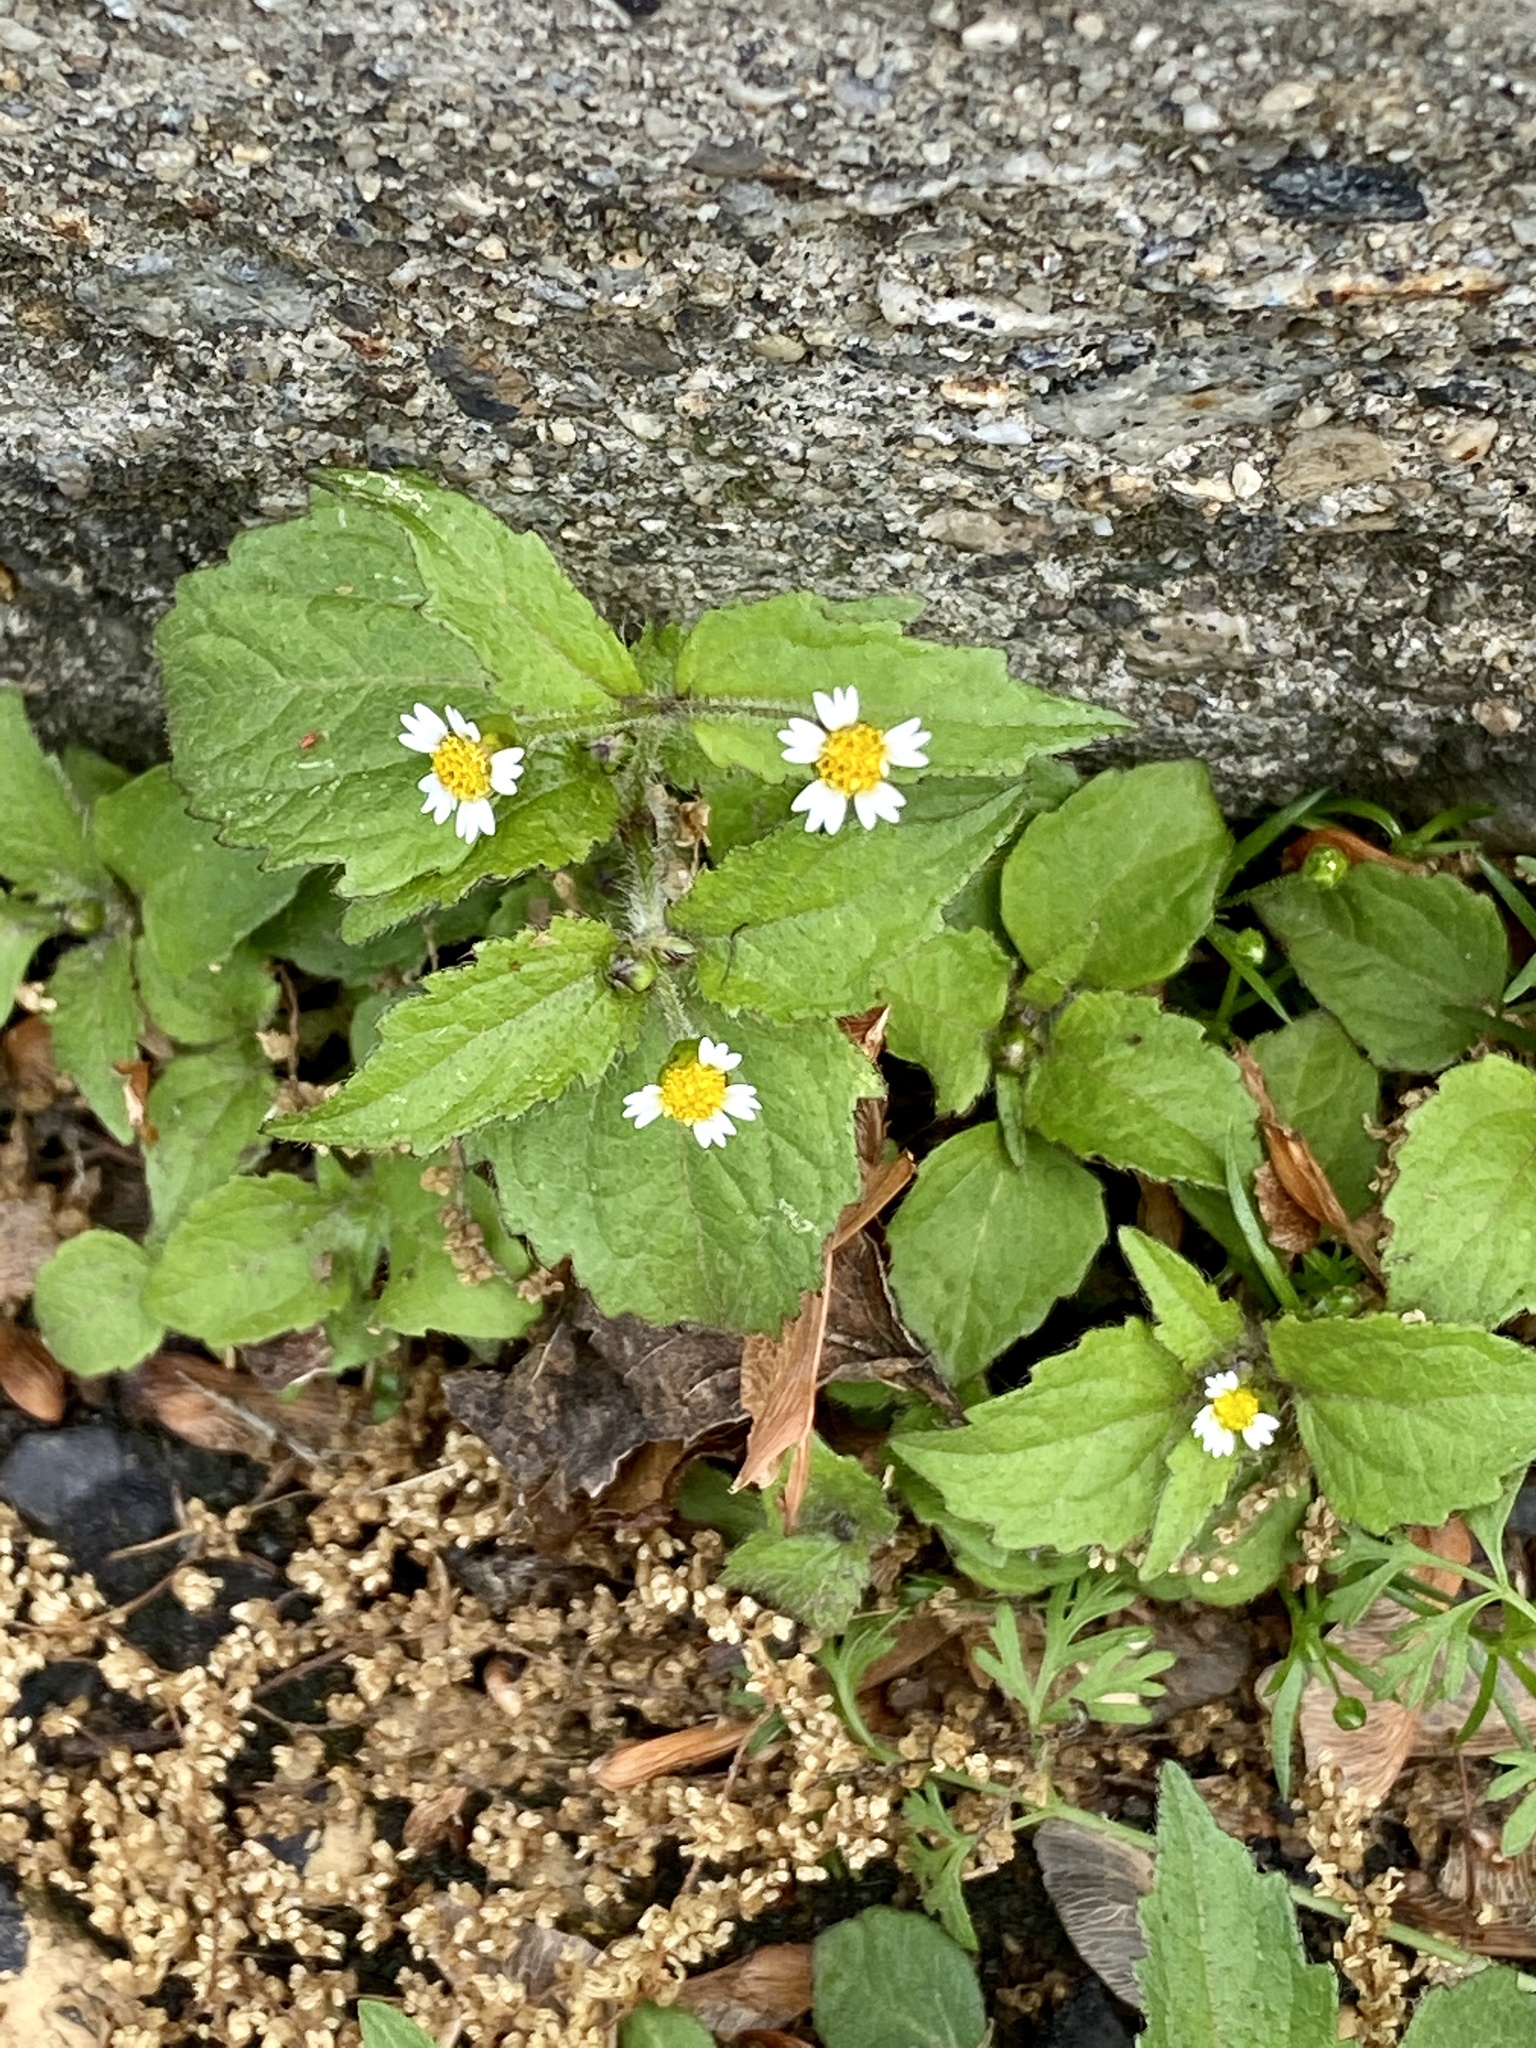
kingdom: Plantae
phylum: Tracheophyta
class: Magnoliopsida
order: Asterales
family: Asteraceae
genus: Galinsoga
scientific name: Galinsoga quadriradiata
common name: Shaggy soldier
